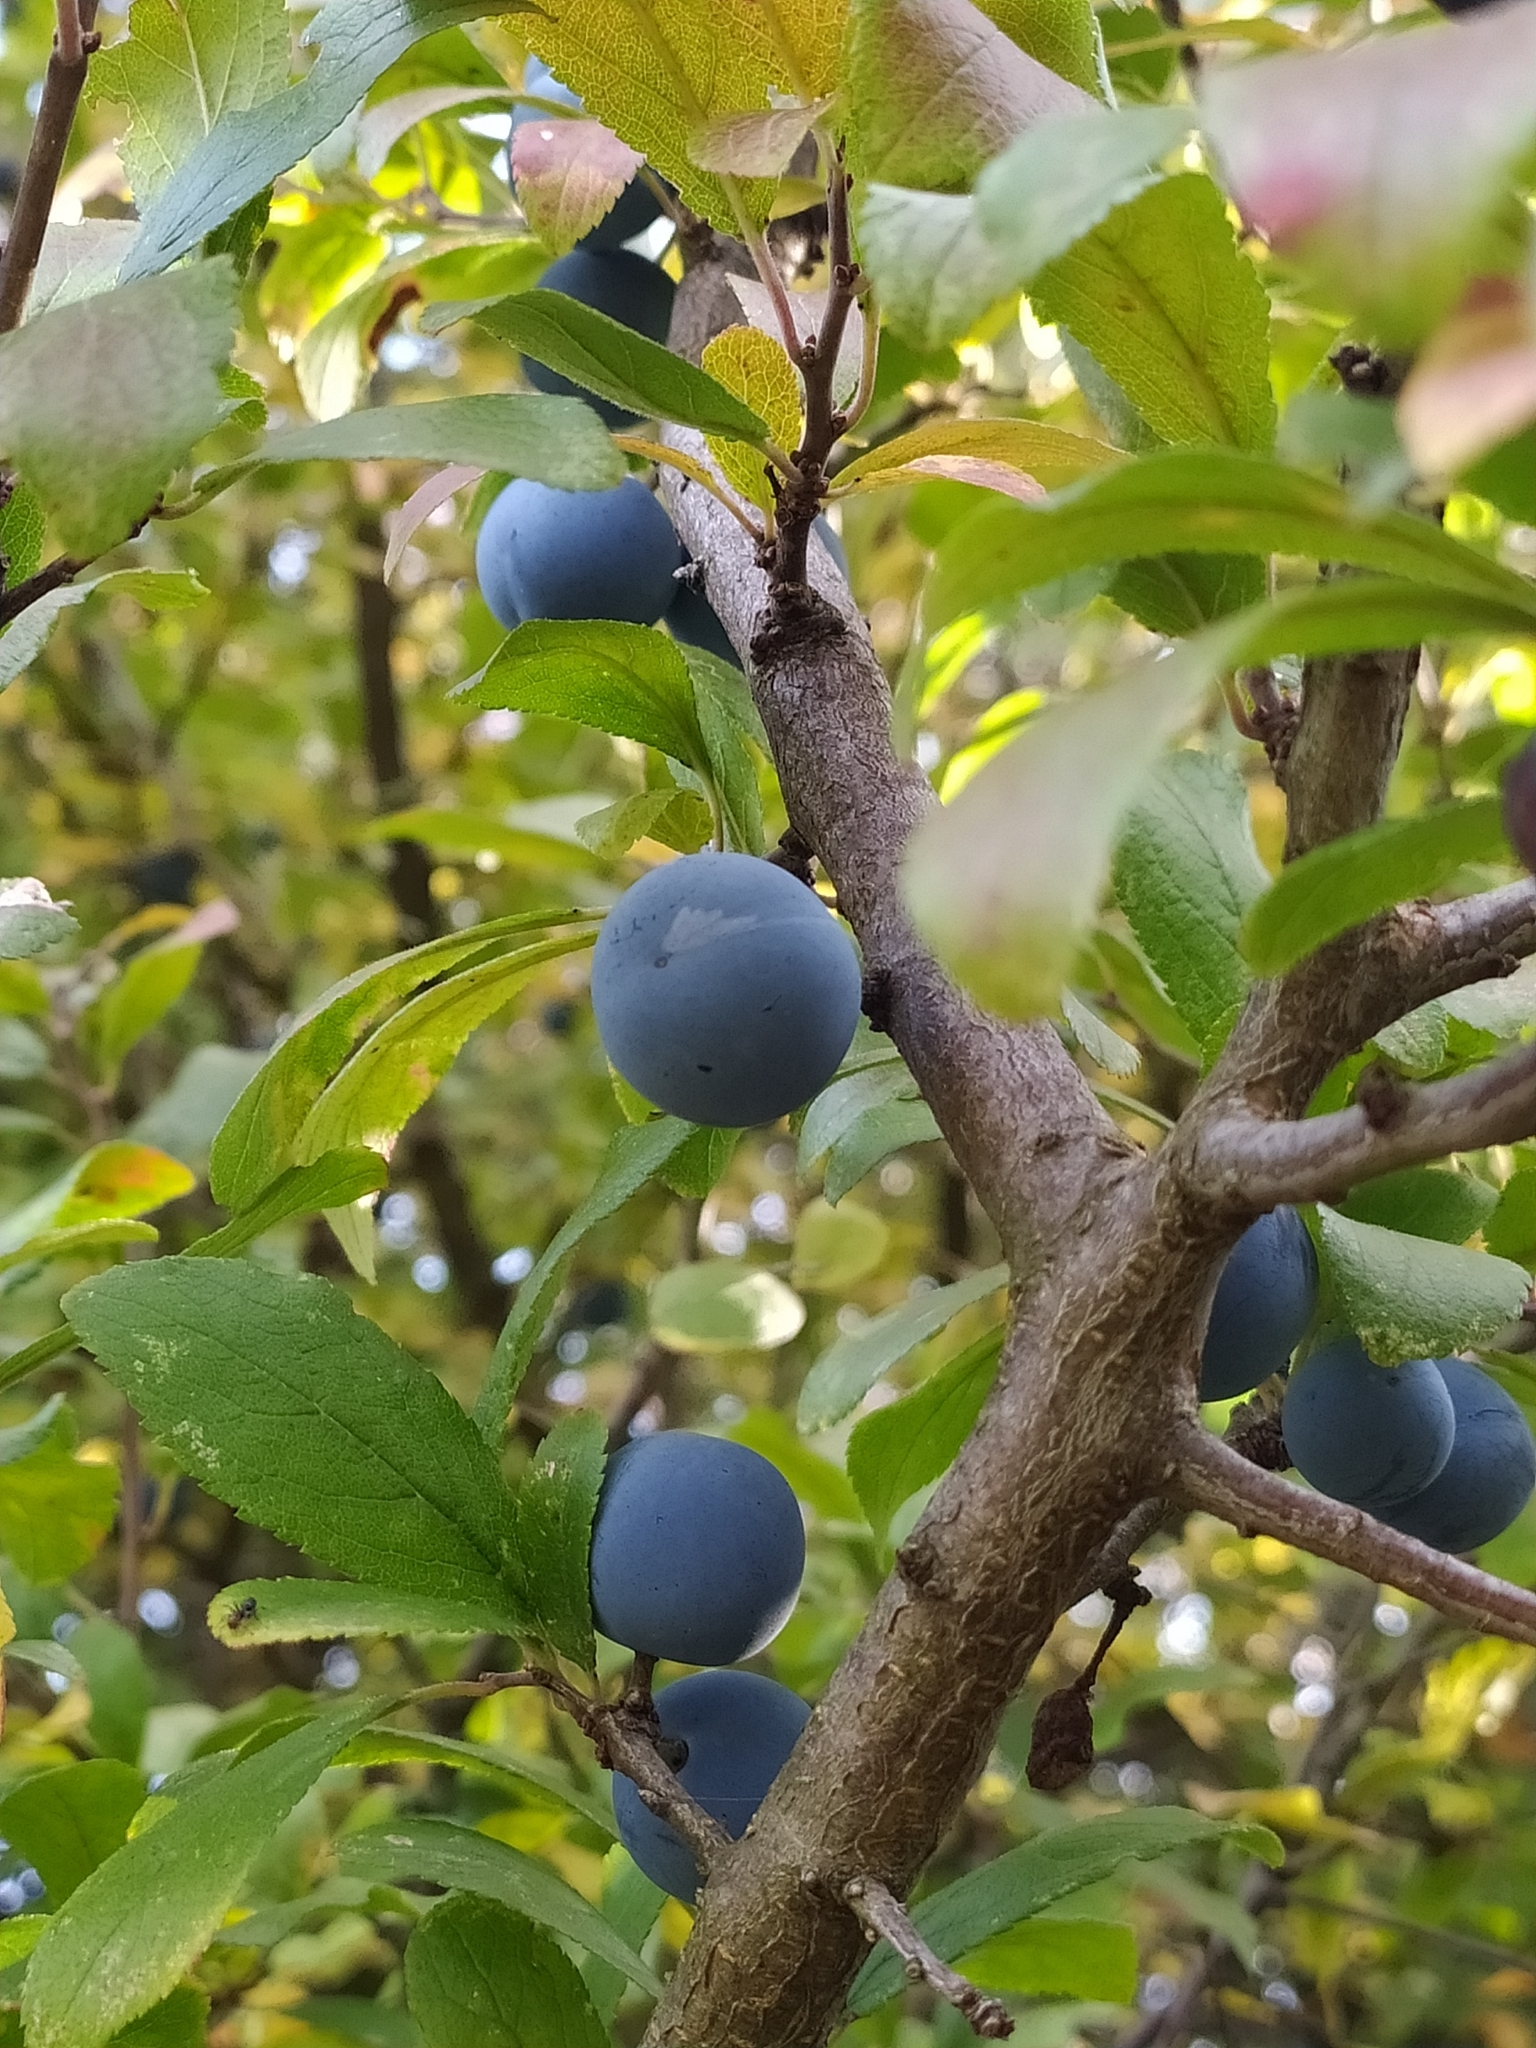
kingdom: Plantae
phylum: Tracheophyta
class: Magnoliopsida
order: Rosales
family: Rosaceae
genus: Prunus
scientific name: Prunus spinosa
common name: Blackthorn
